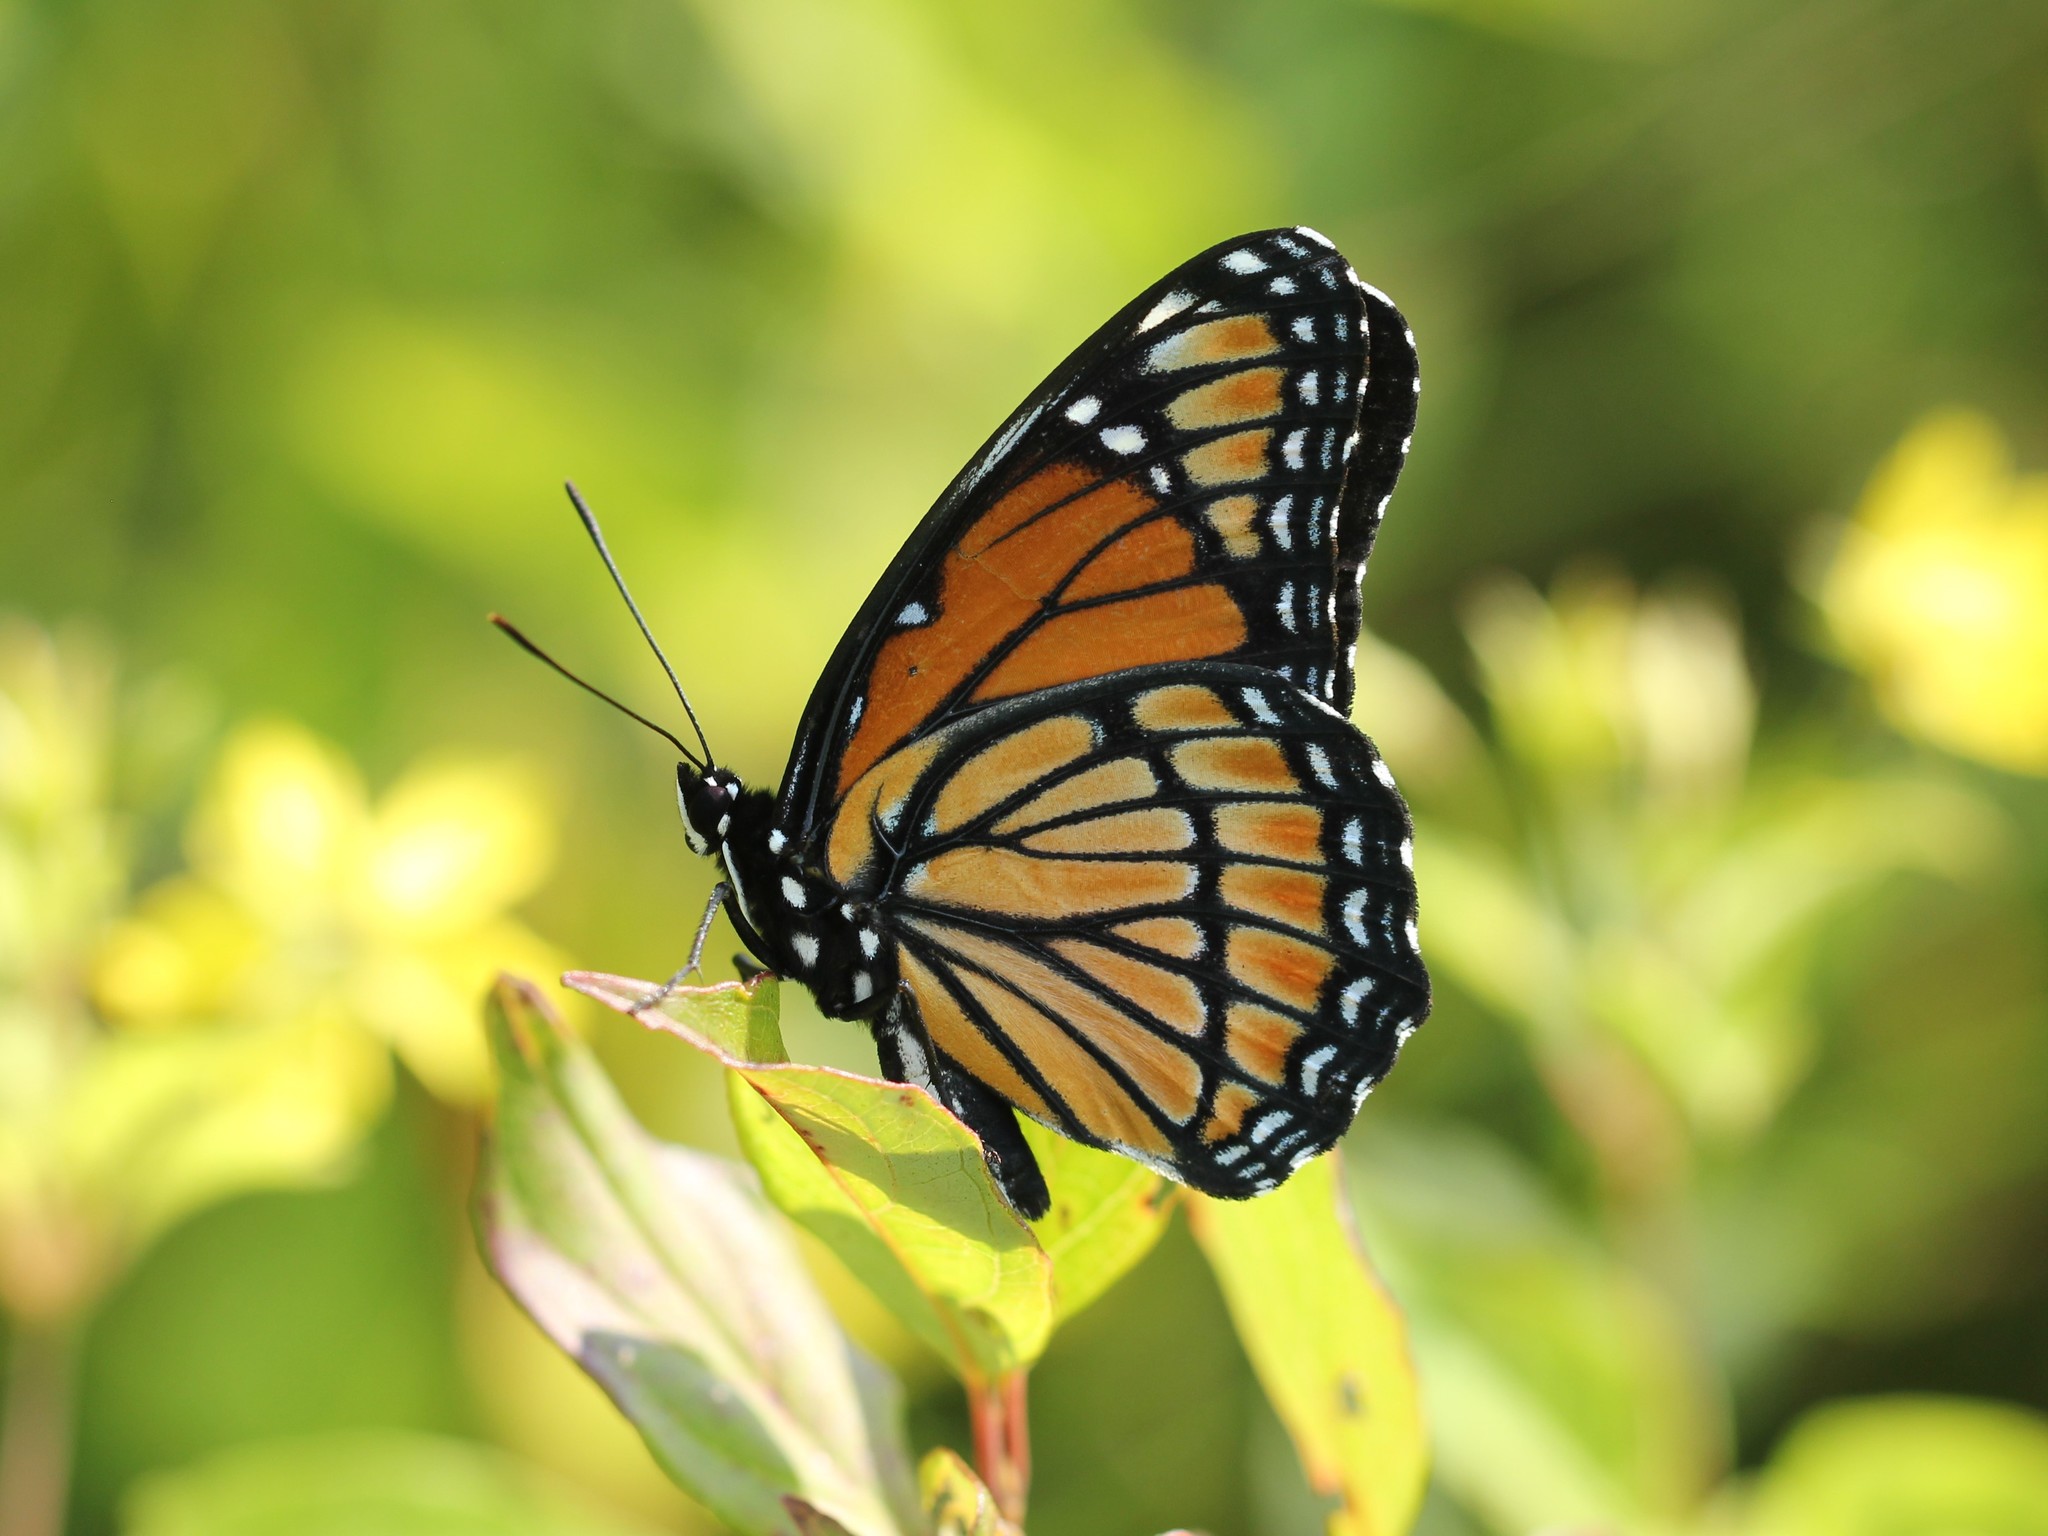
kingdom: Animalia
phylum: Arthropoda
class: Insecta
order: Lepidoptera
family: Nymphalidae
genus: Limenitis
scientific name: Limenitis archippus
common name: Viceroy
